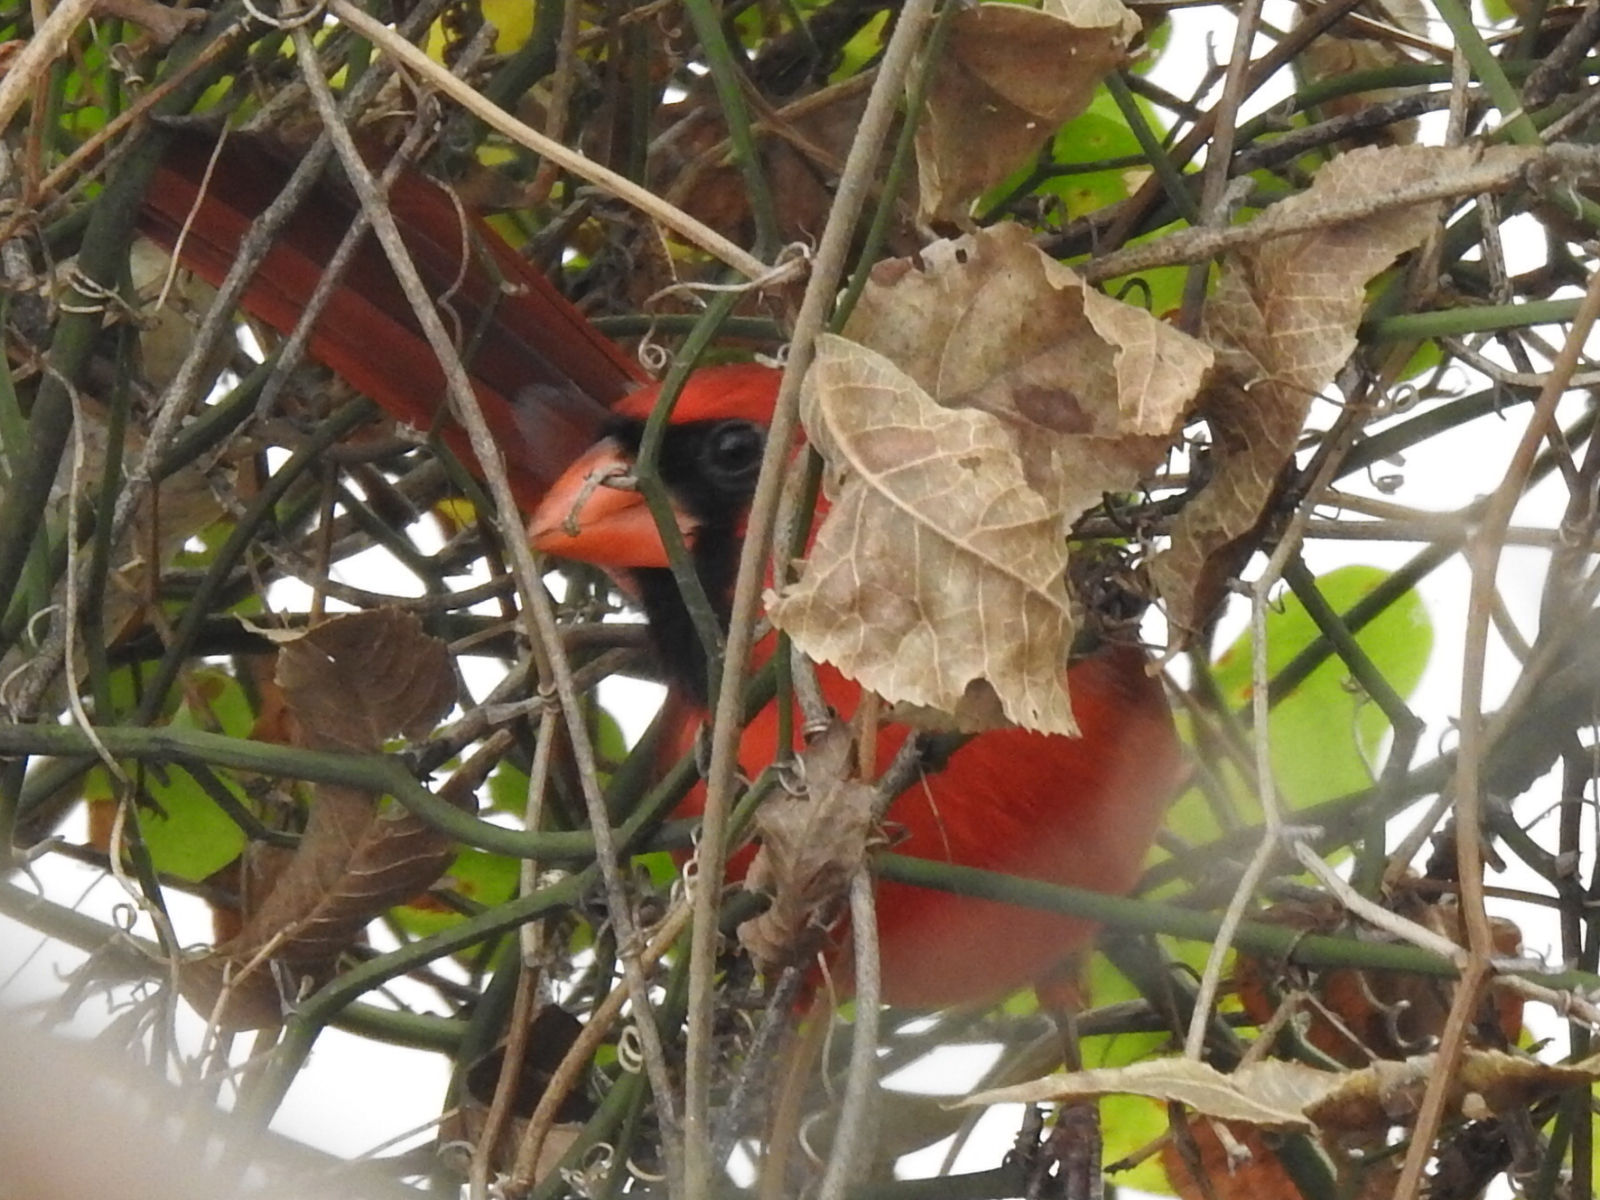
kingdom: Animalia
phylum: Chordata
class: Aves
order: Passeriformes
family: Cardinalidae
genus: Cardinalis
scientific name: Cardinalis cardinalis
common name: Northern cardinal
